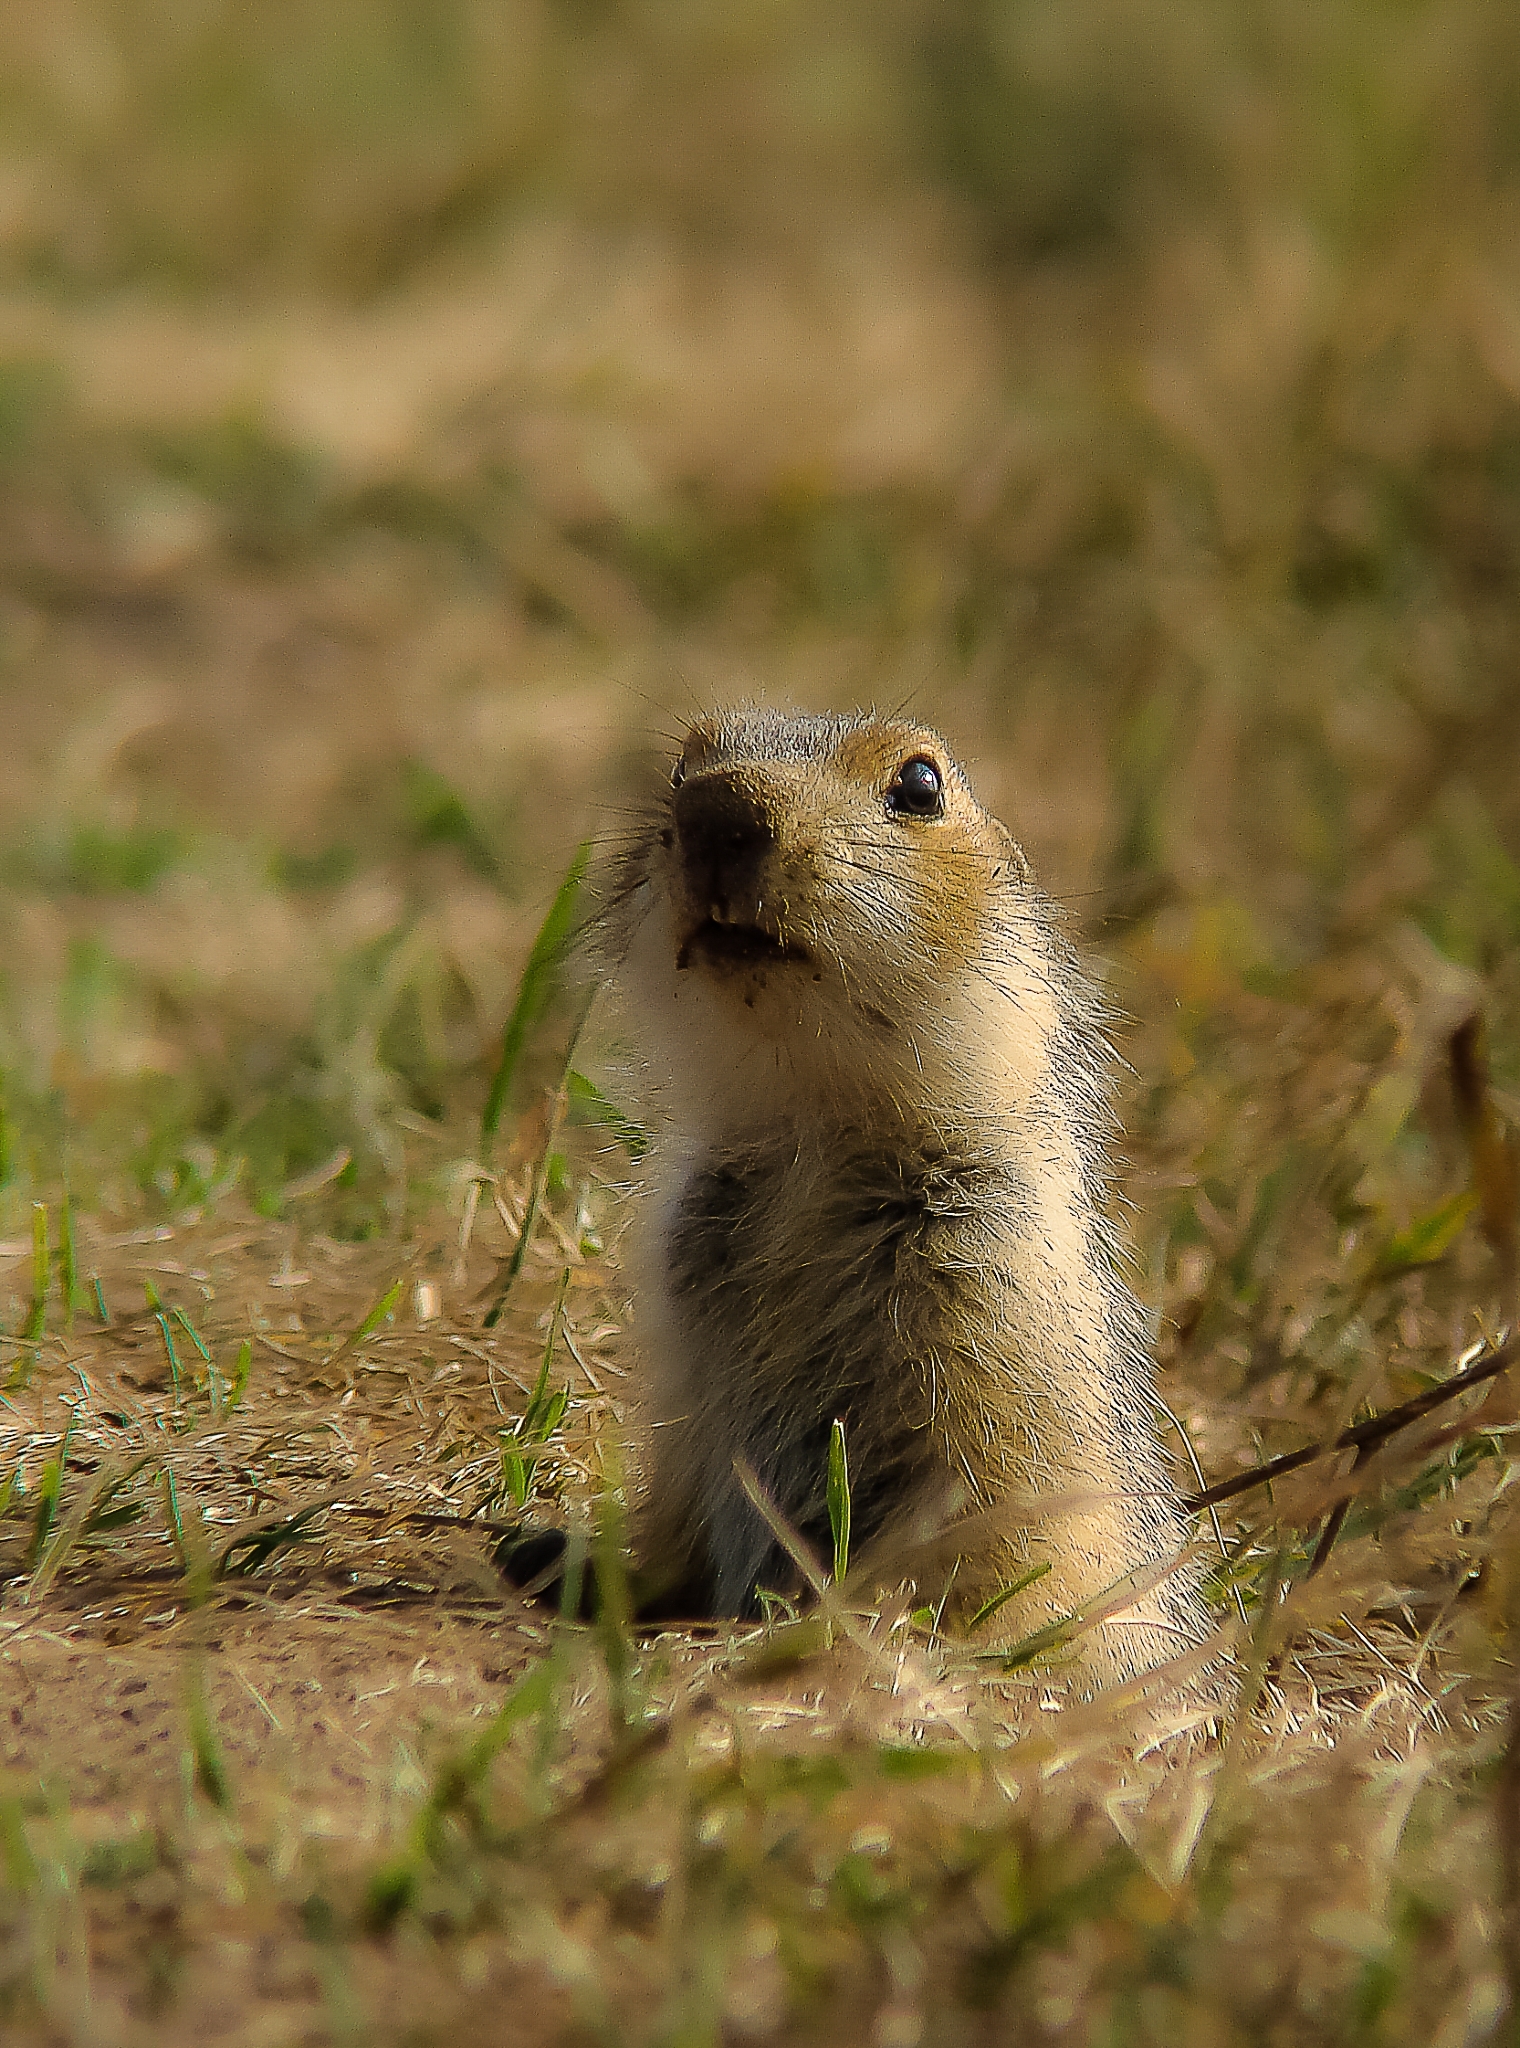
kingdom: Animalia
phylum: Chordata
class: Mammalia
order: Rodentia
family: Sciuridae
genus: Spermophilus
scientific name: Spermophilus major
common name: Russet ground squirrel
